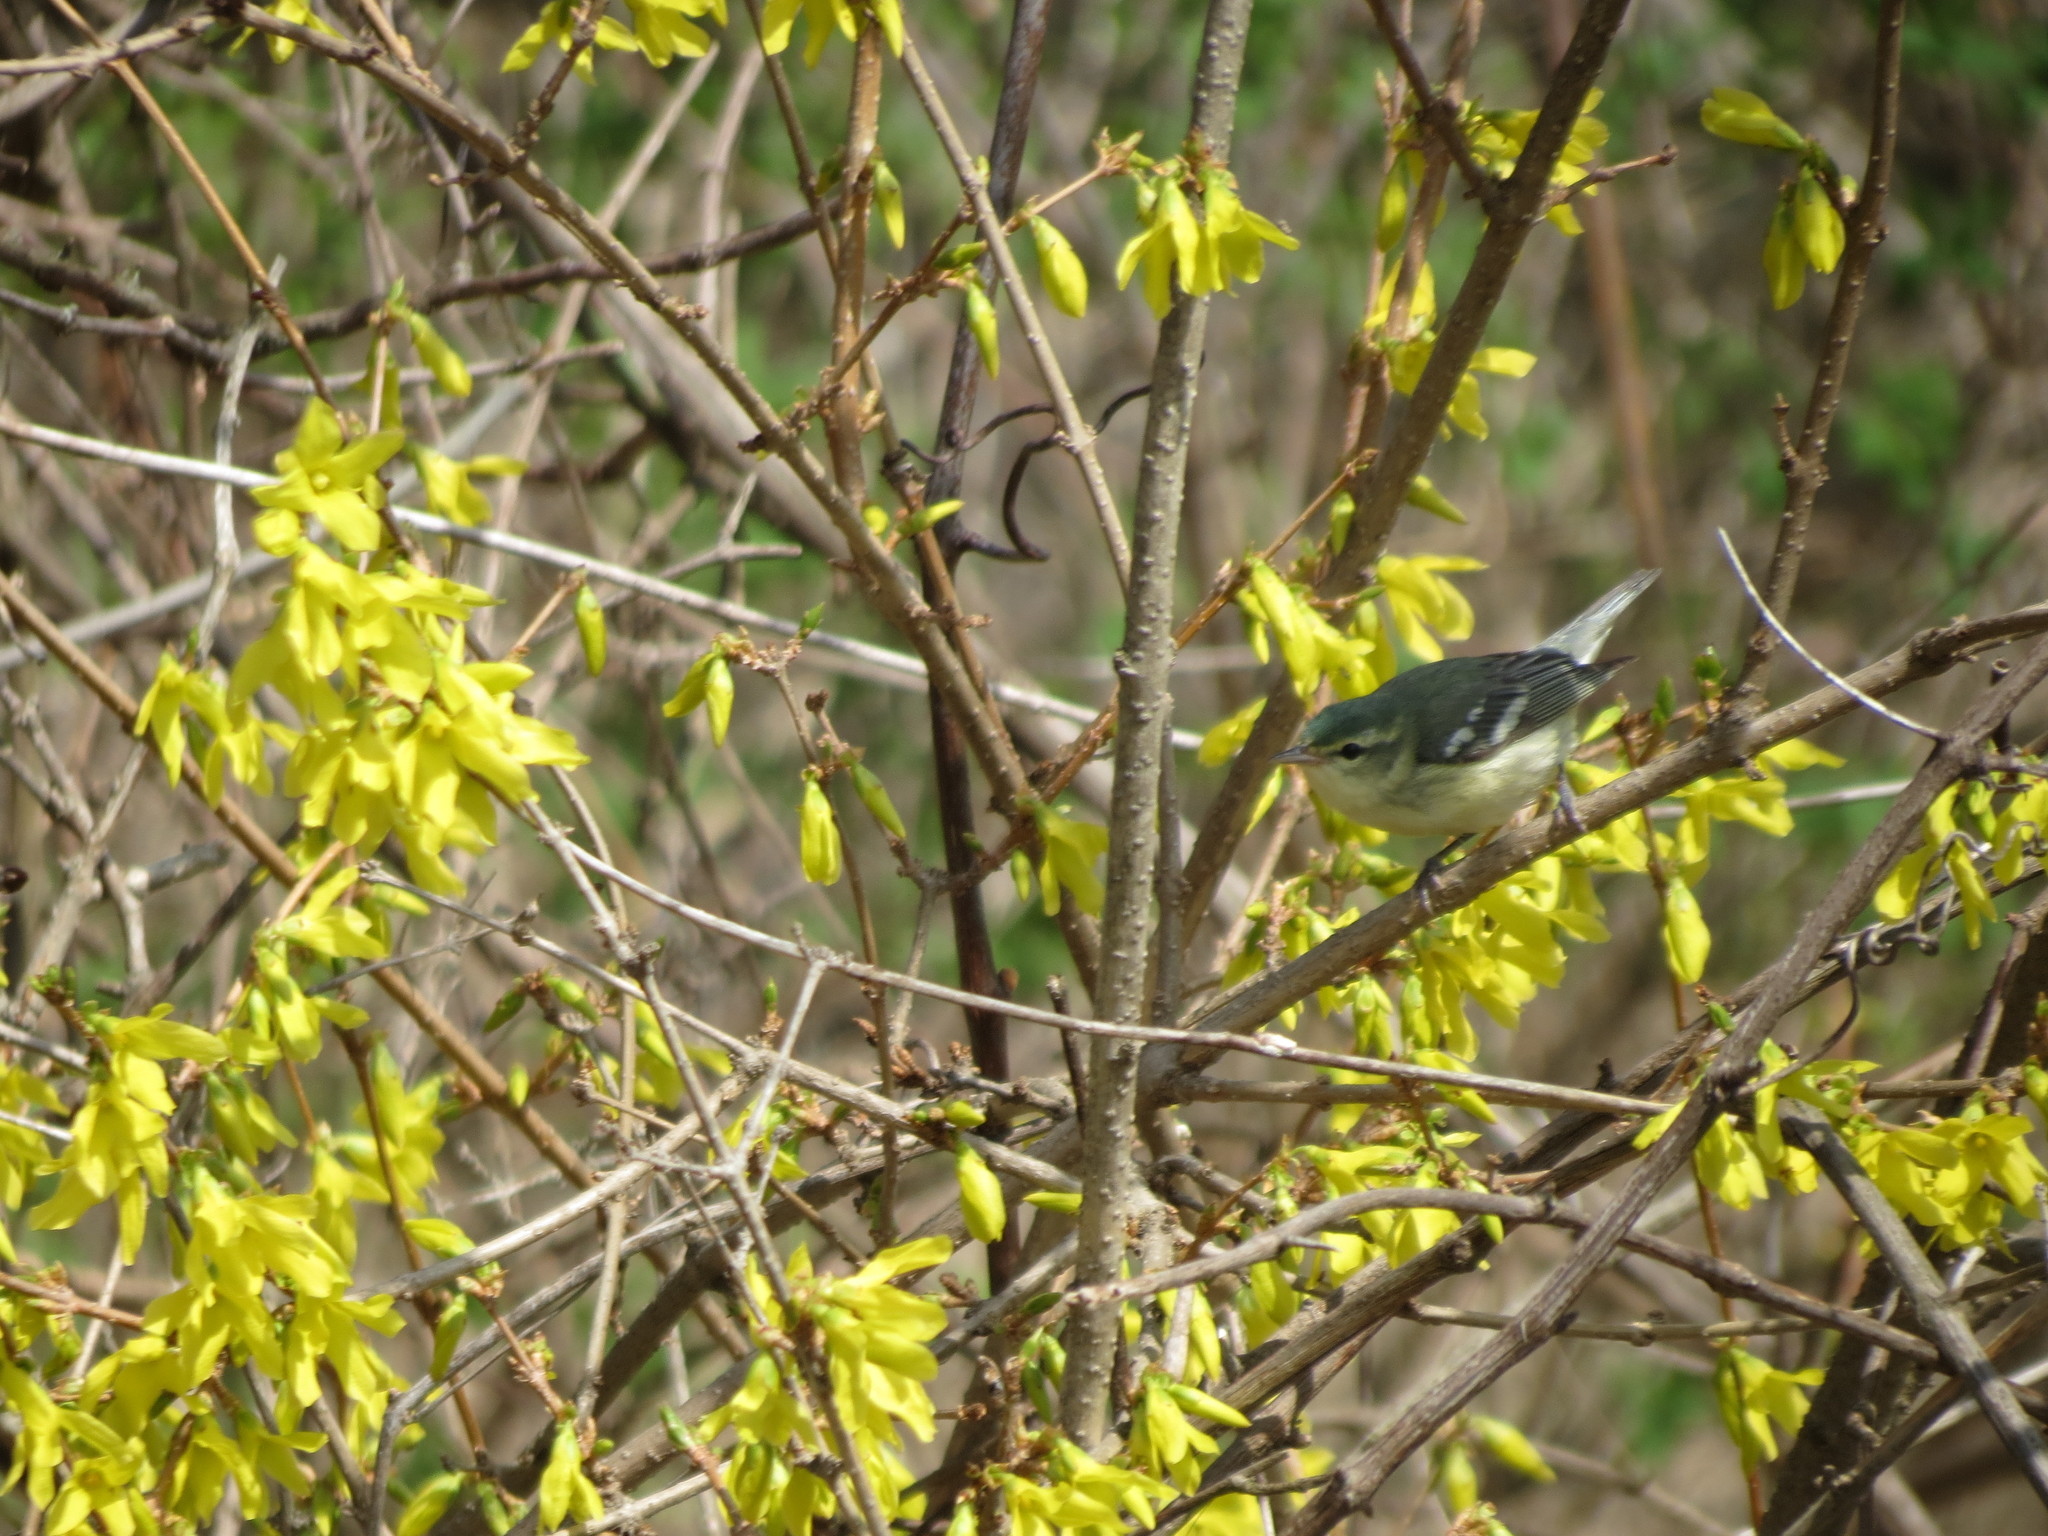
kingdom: Animalia
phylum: Chordata
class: Aves
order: Passeriformes
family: Parulidae
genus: Setophaga
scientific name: Setophaga cerulea
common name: Cerulean warbler
